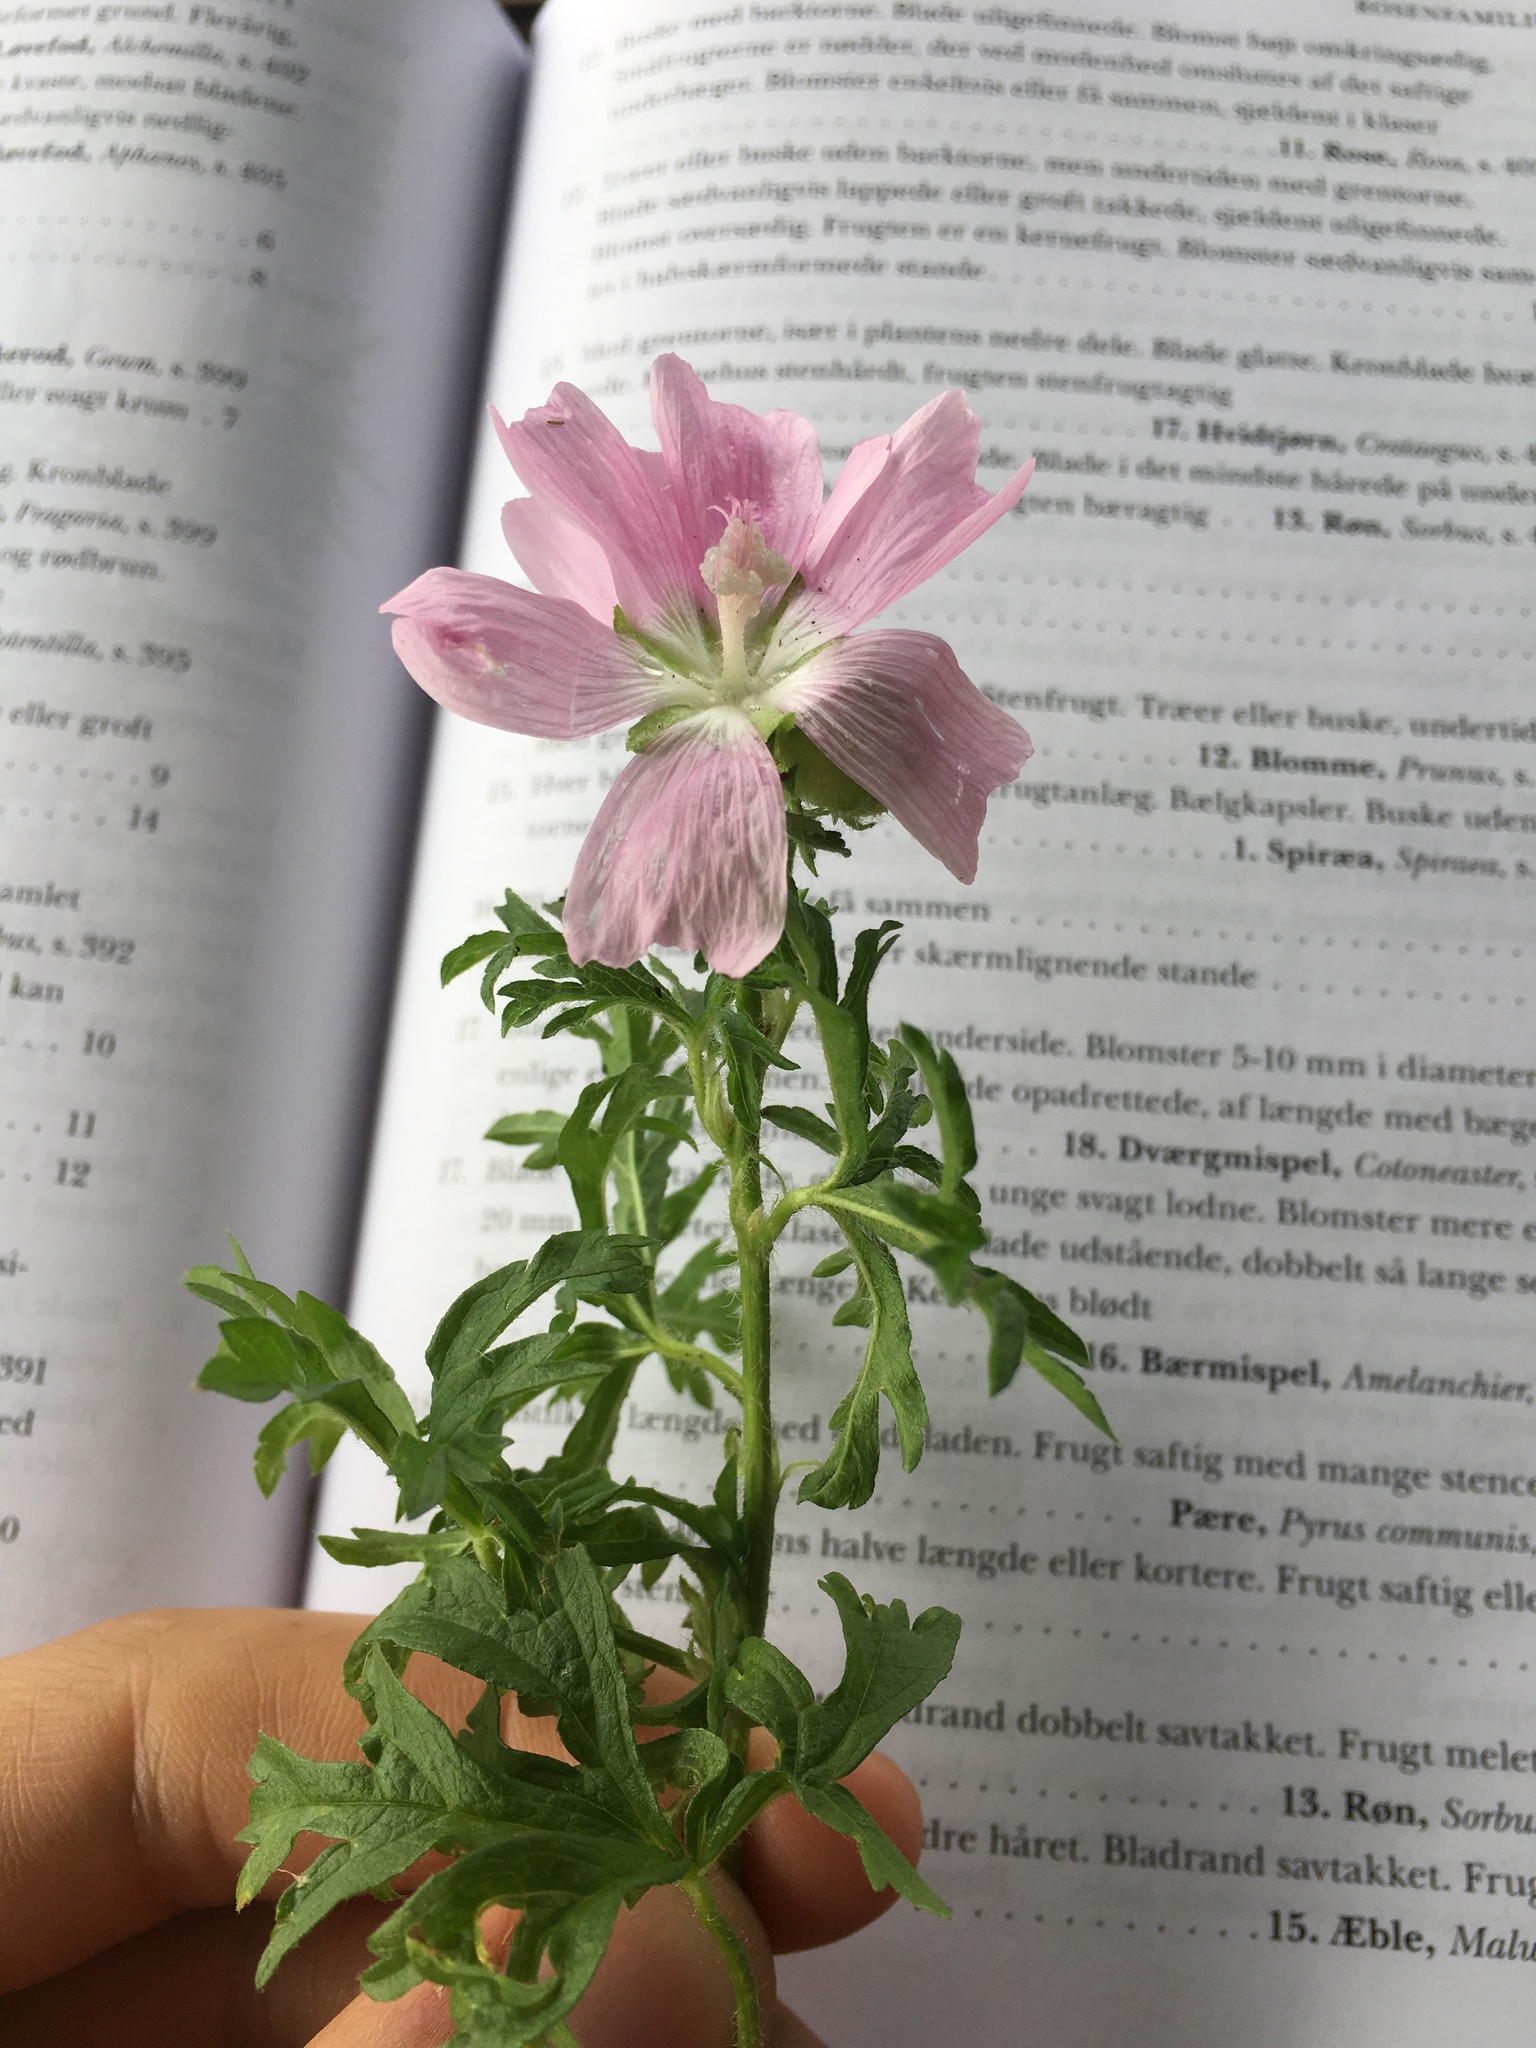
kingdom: Plantae
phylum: Tracheophyta
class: Magnoliopsida
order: Malvales
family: Malvaceae
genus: Malva
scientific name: Malva moschata
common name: Musk mallow
